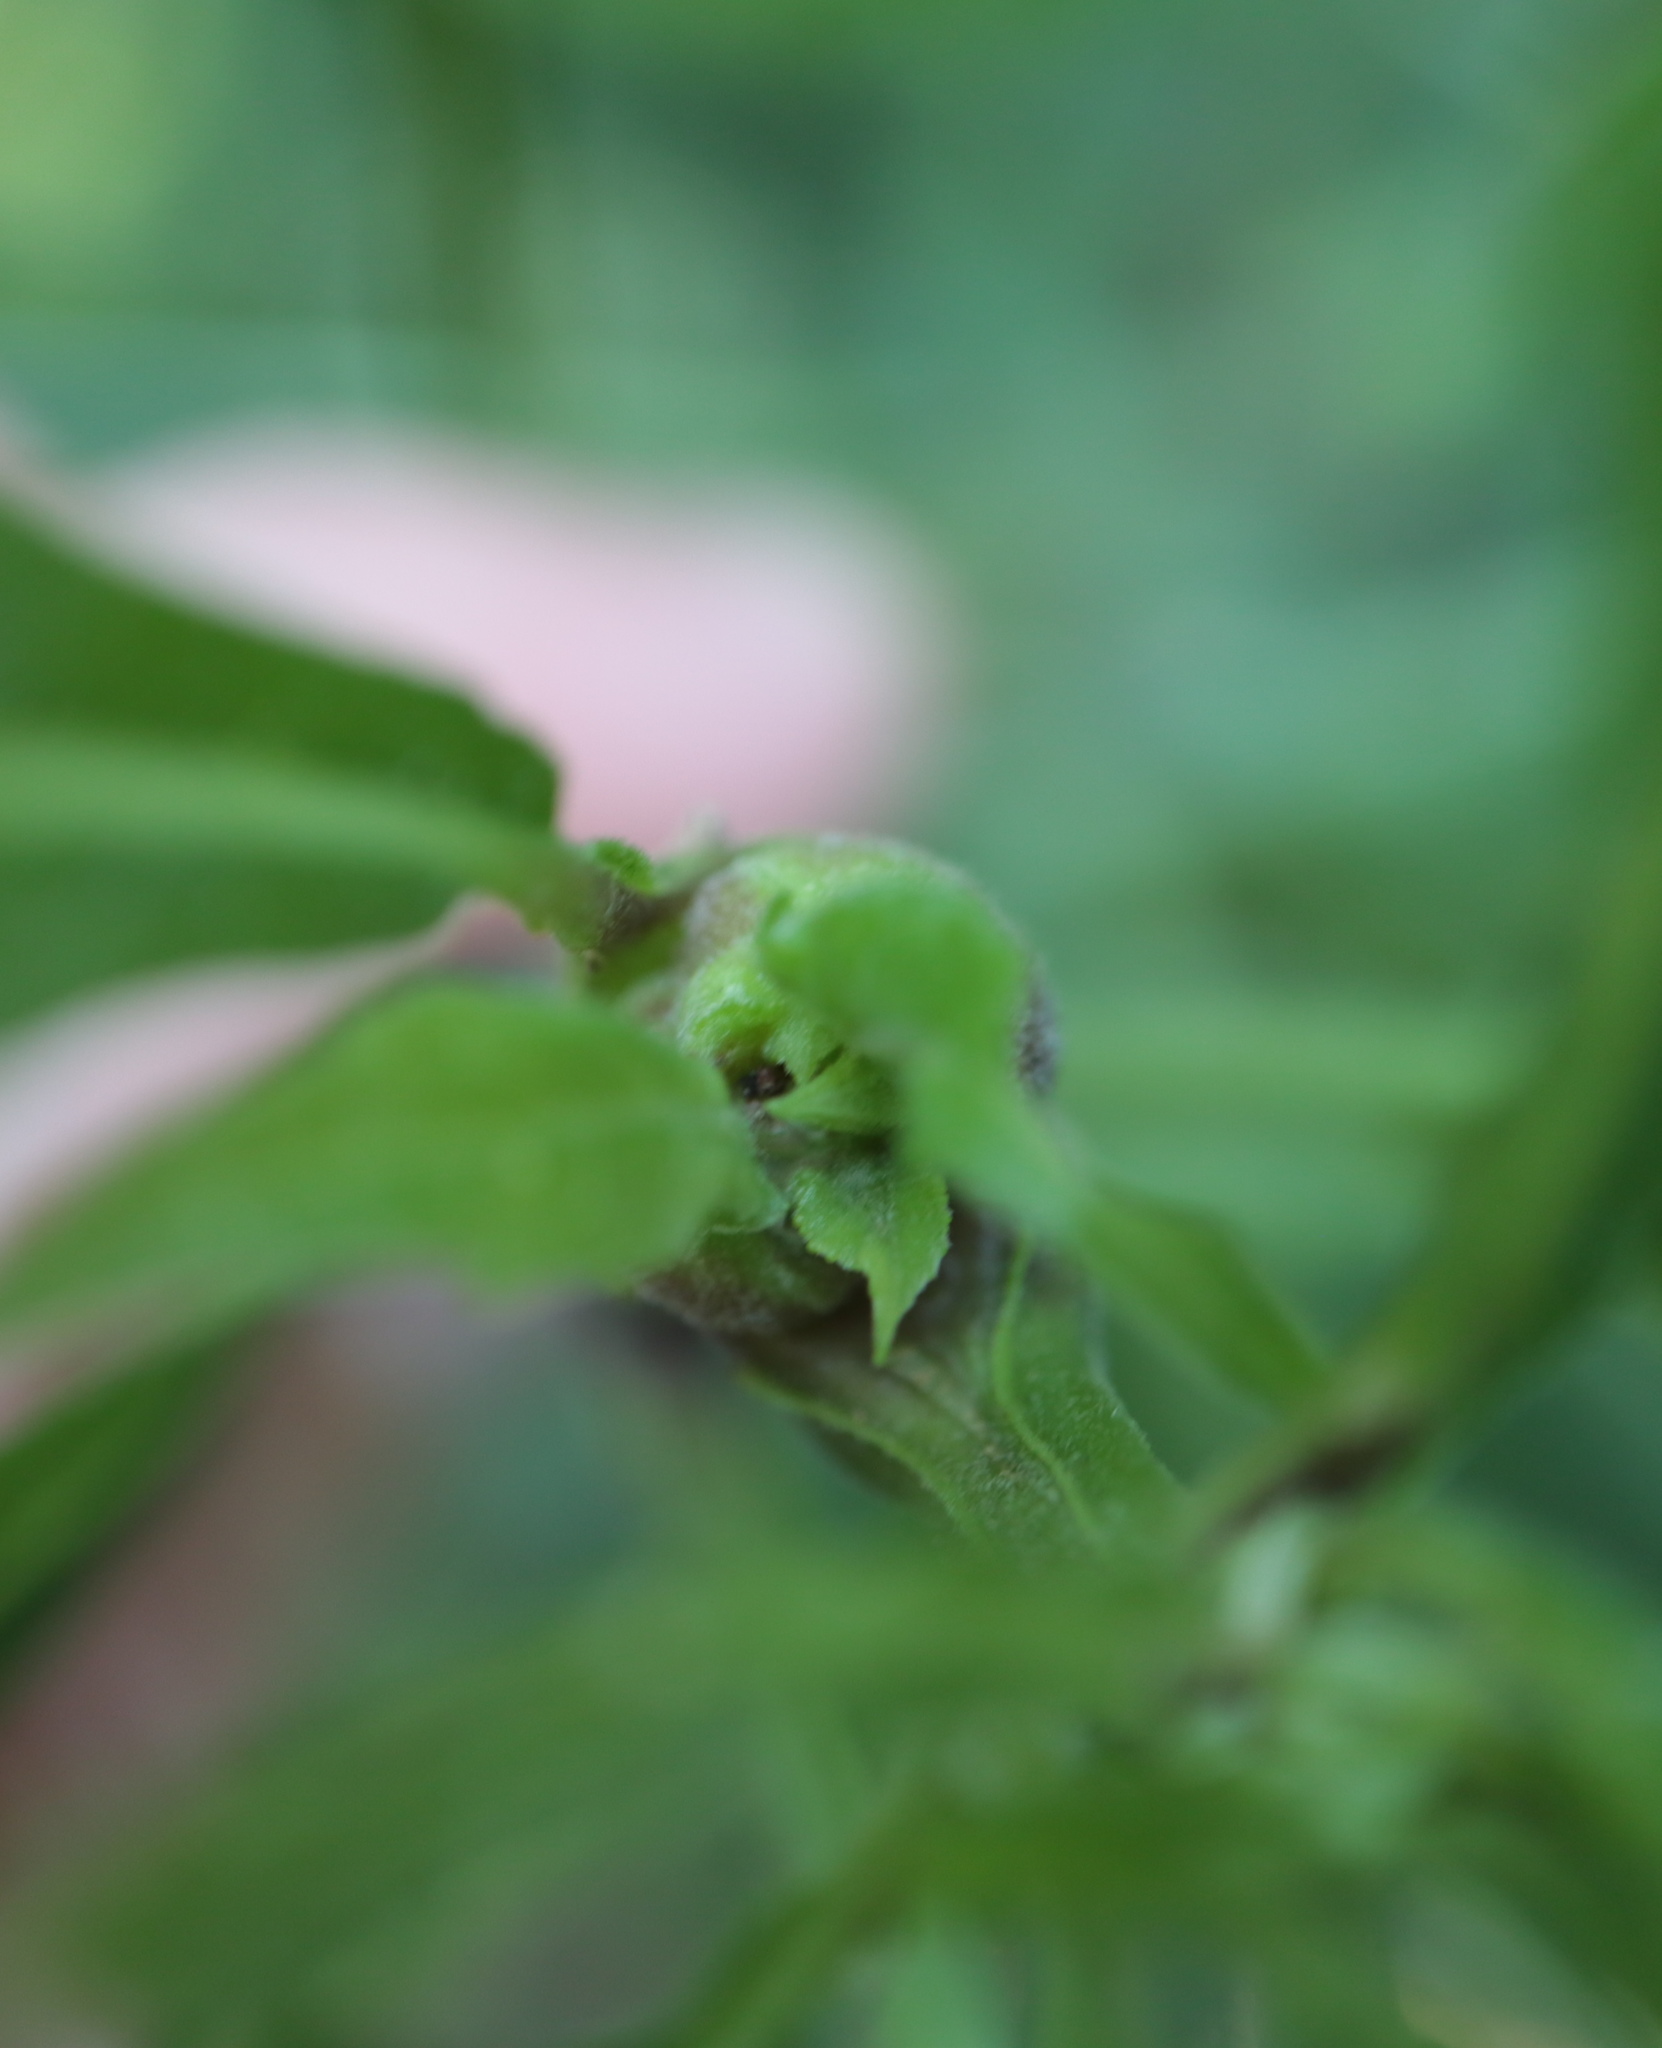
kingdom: Animalia
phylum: Arthropoda
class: Insecta
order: Diptera
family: Cecidomyiidae
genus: Neolasioptera
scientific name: Neolasioptera verbesinae
